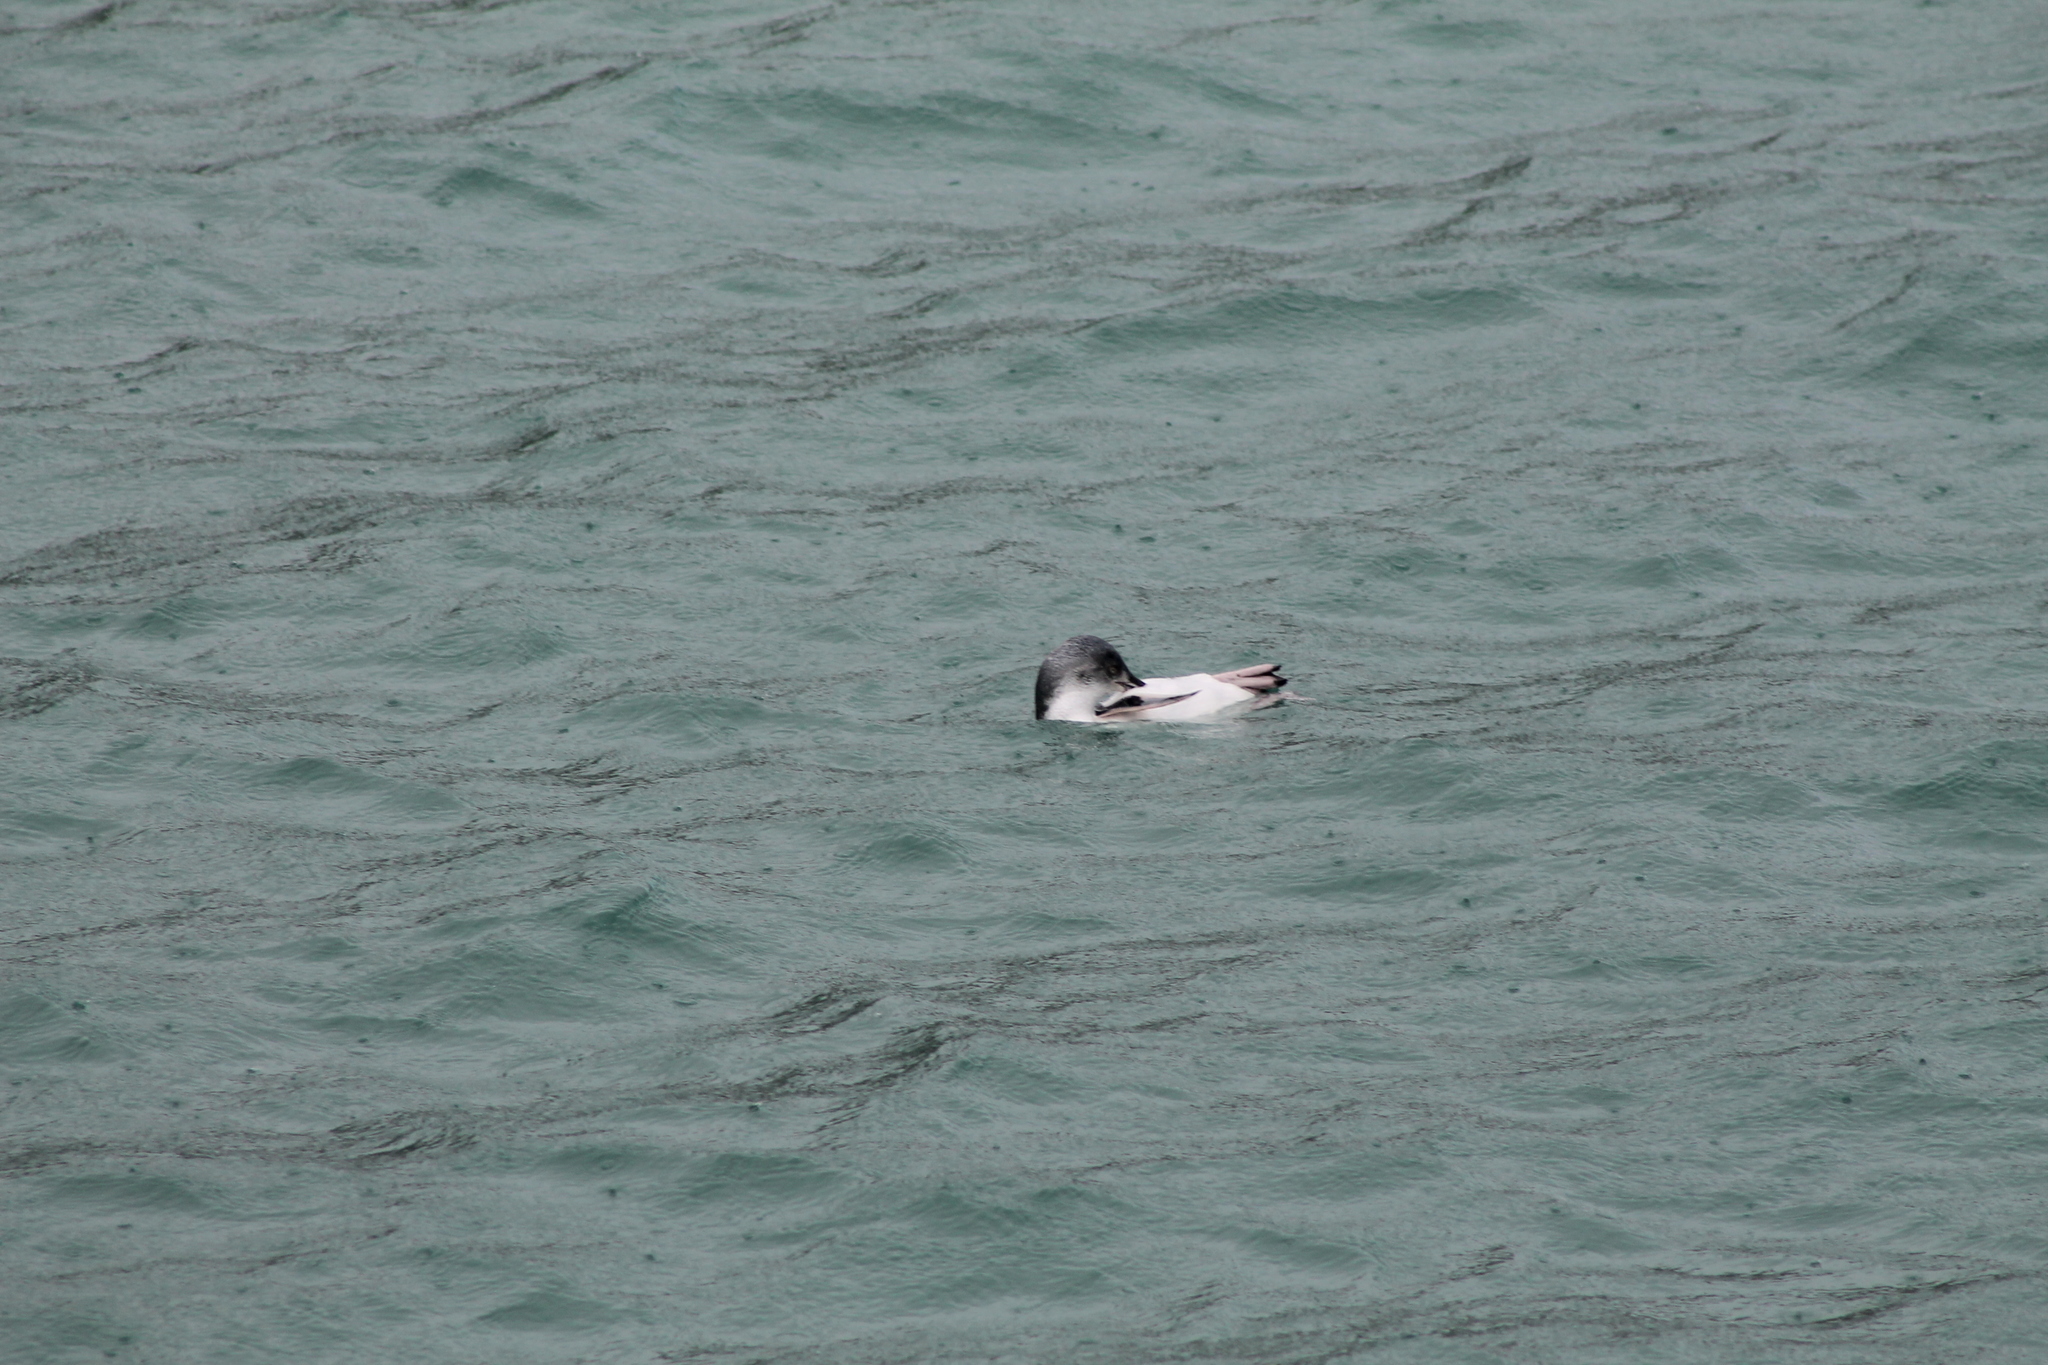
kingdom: Animalia
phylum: Chordata
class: Aves
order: Sphenisciformes
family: Spheniscidae
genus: Eudyptula
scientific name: Eudyptula minor
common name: Little penguin
